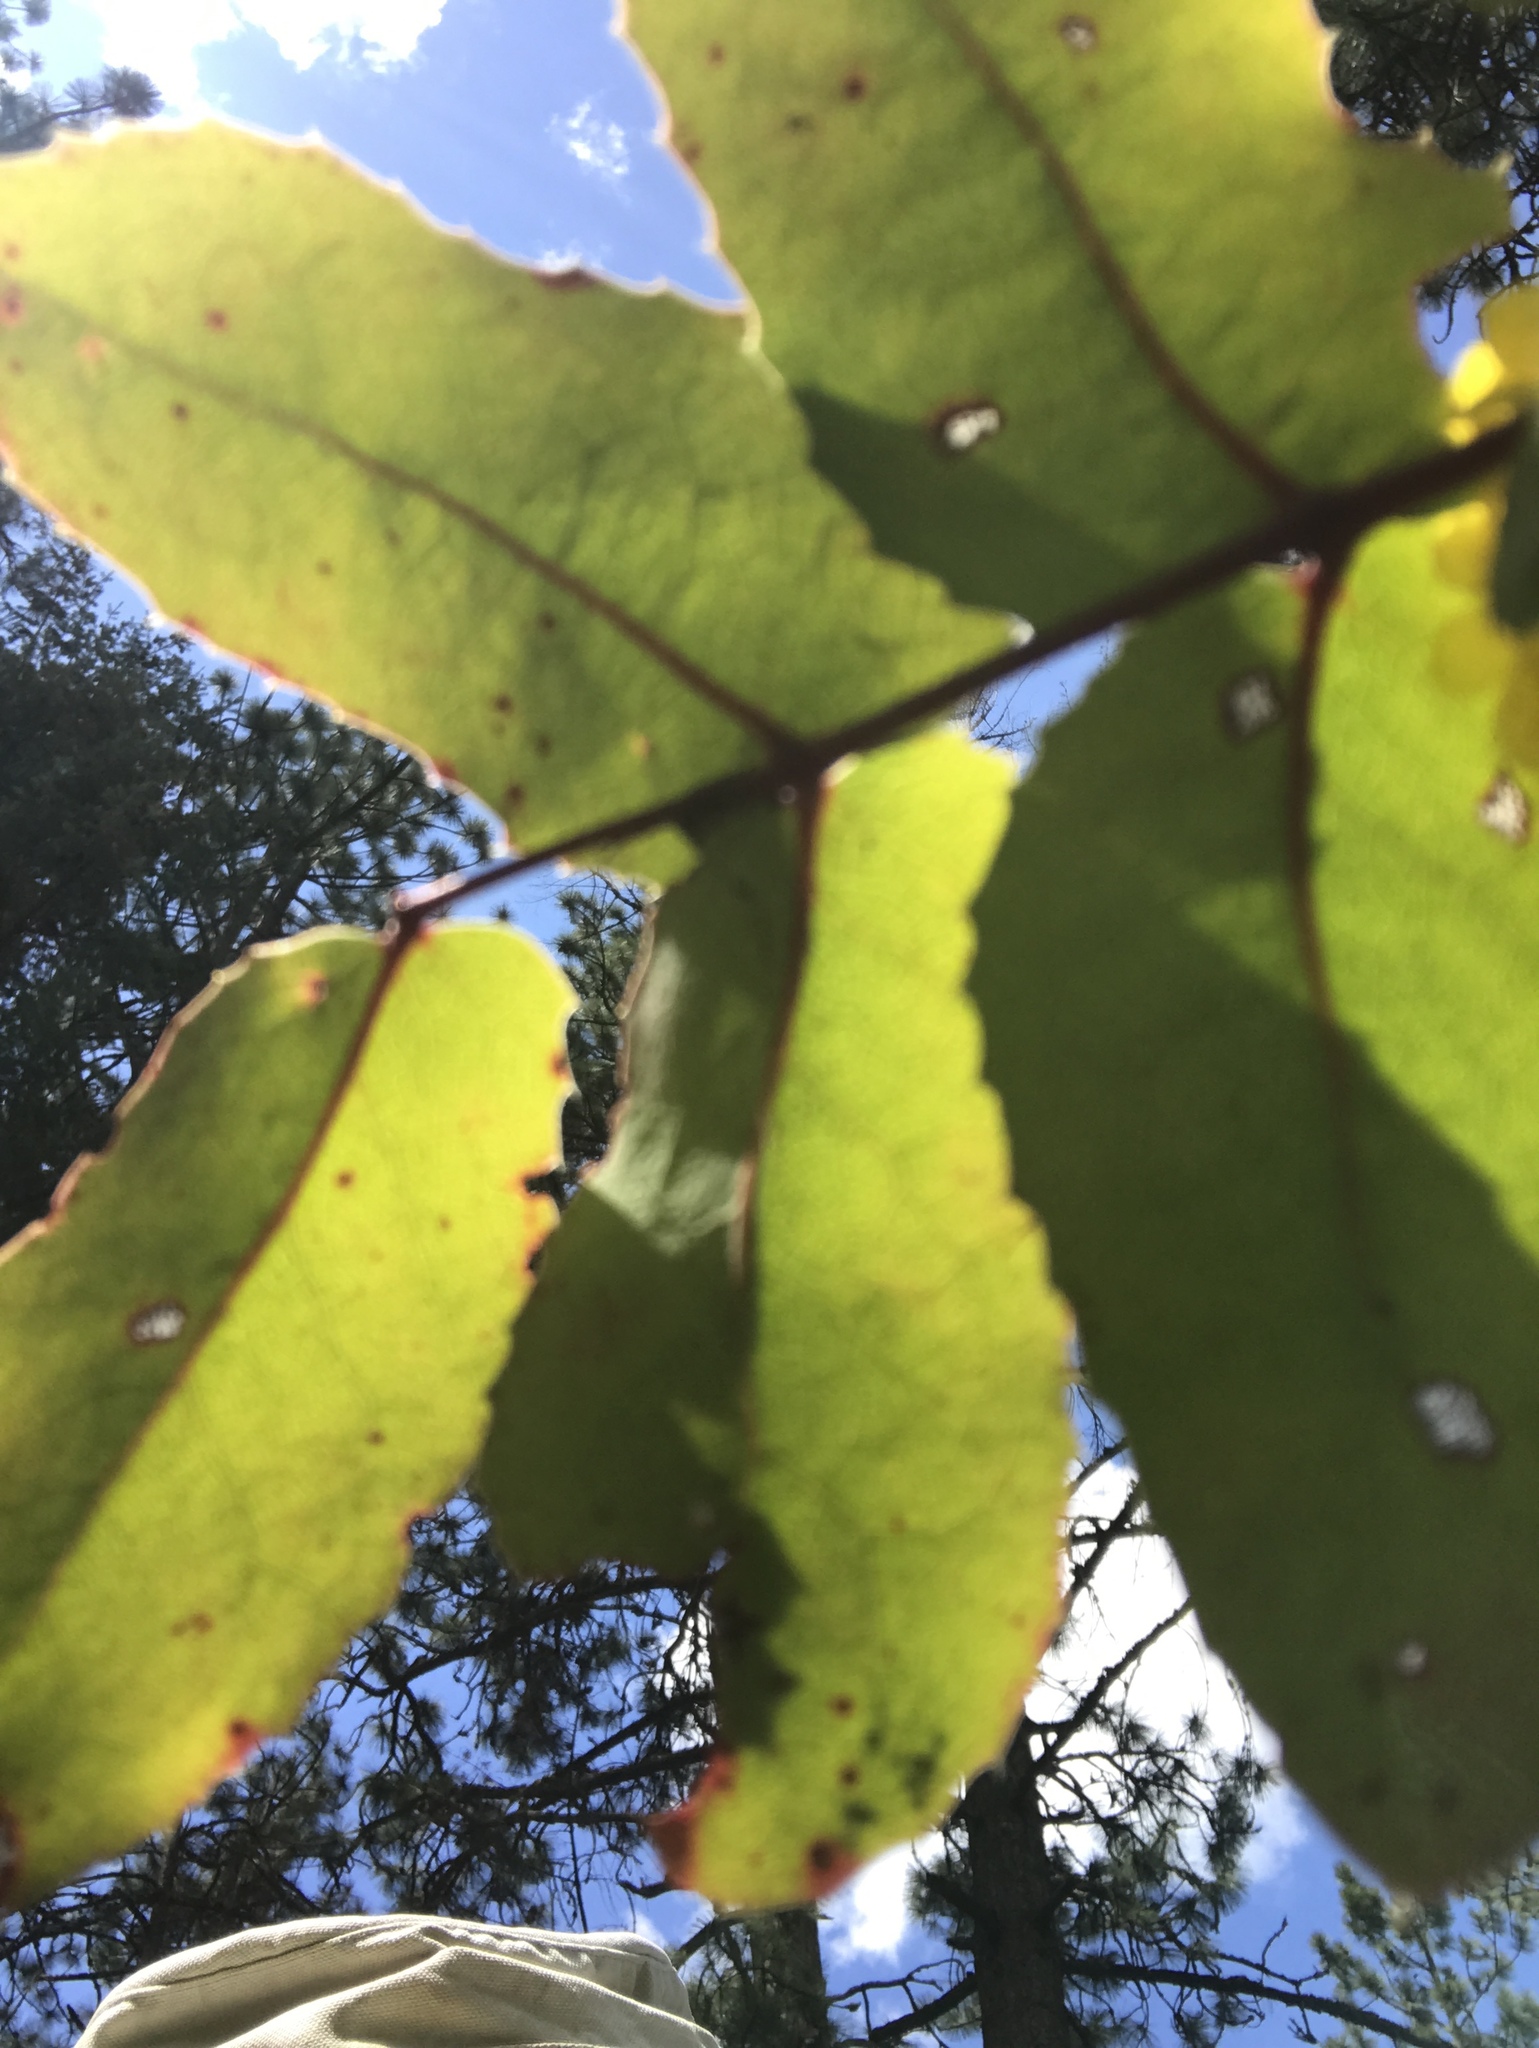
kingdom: Plantae
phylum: Tracheophyta
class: Magnoliopsida
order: Ranunculales
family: Berberidaceae
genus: Mahonia
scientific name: Mahonia repens
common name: Creeping oregon-grape
